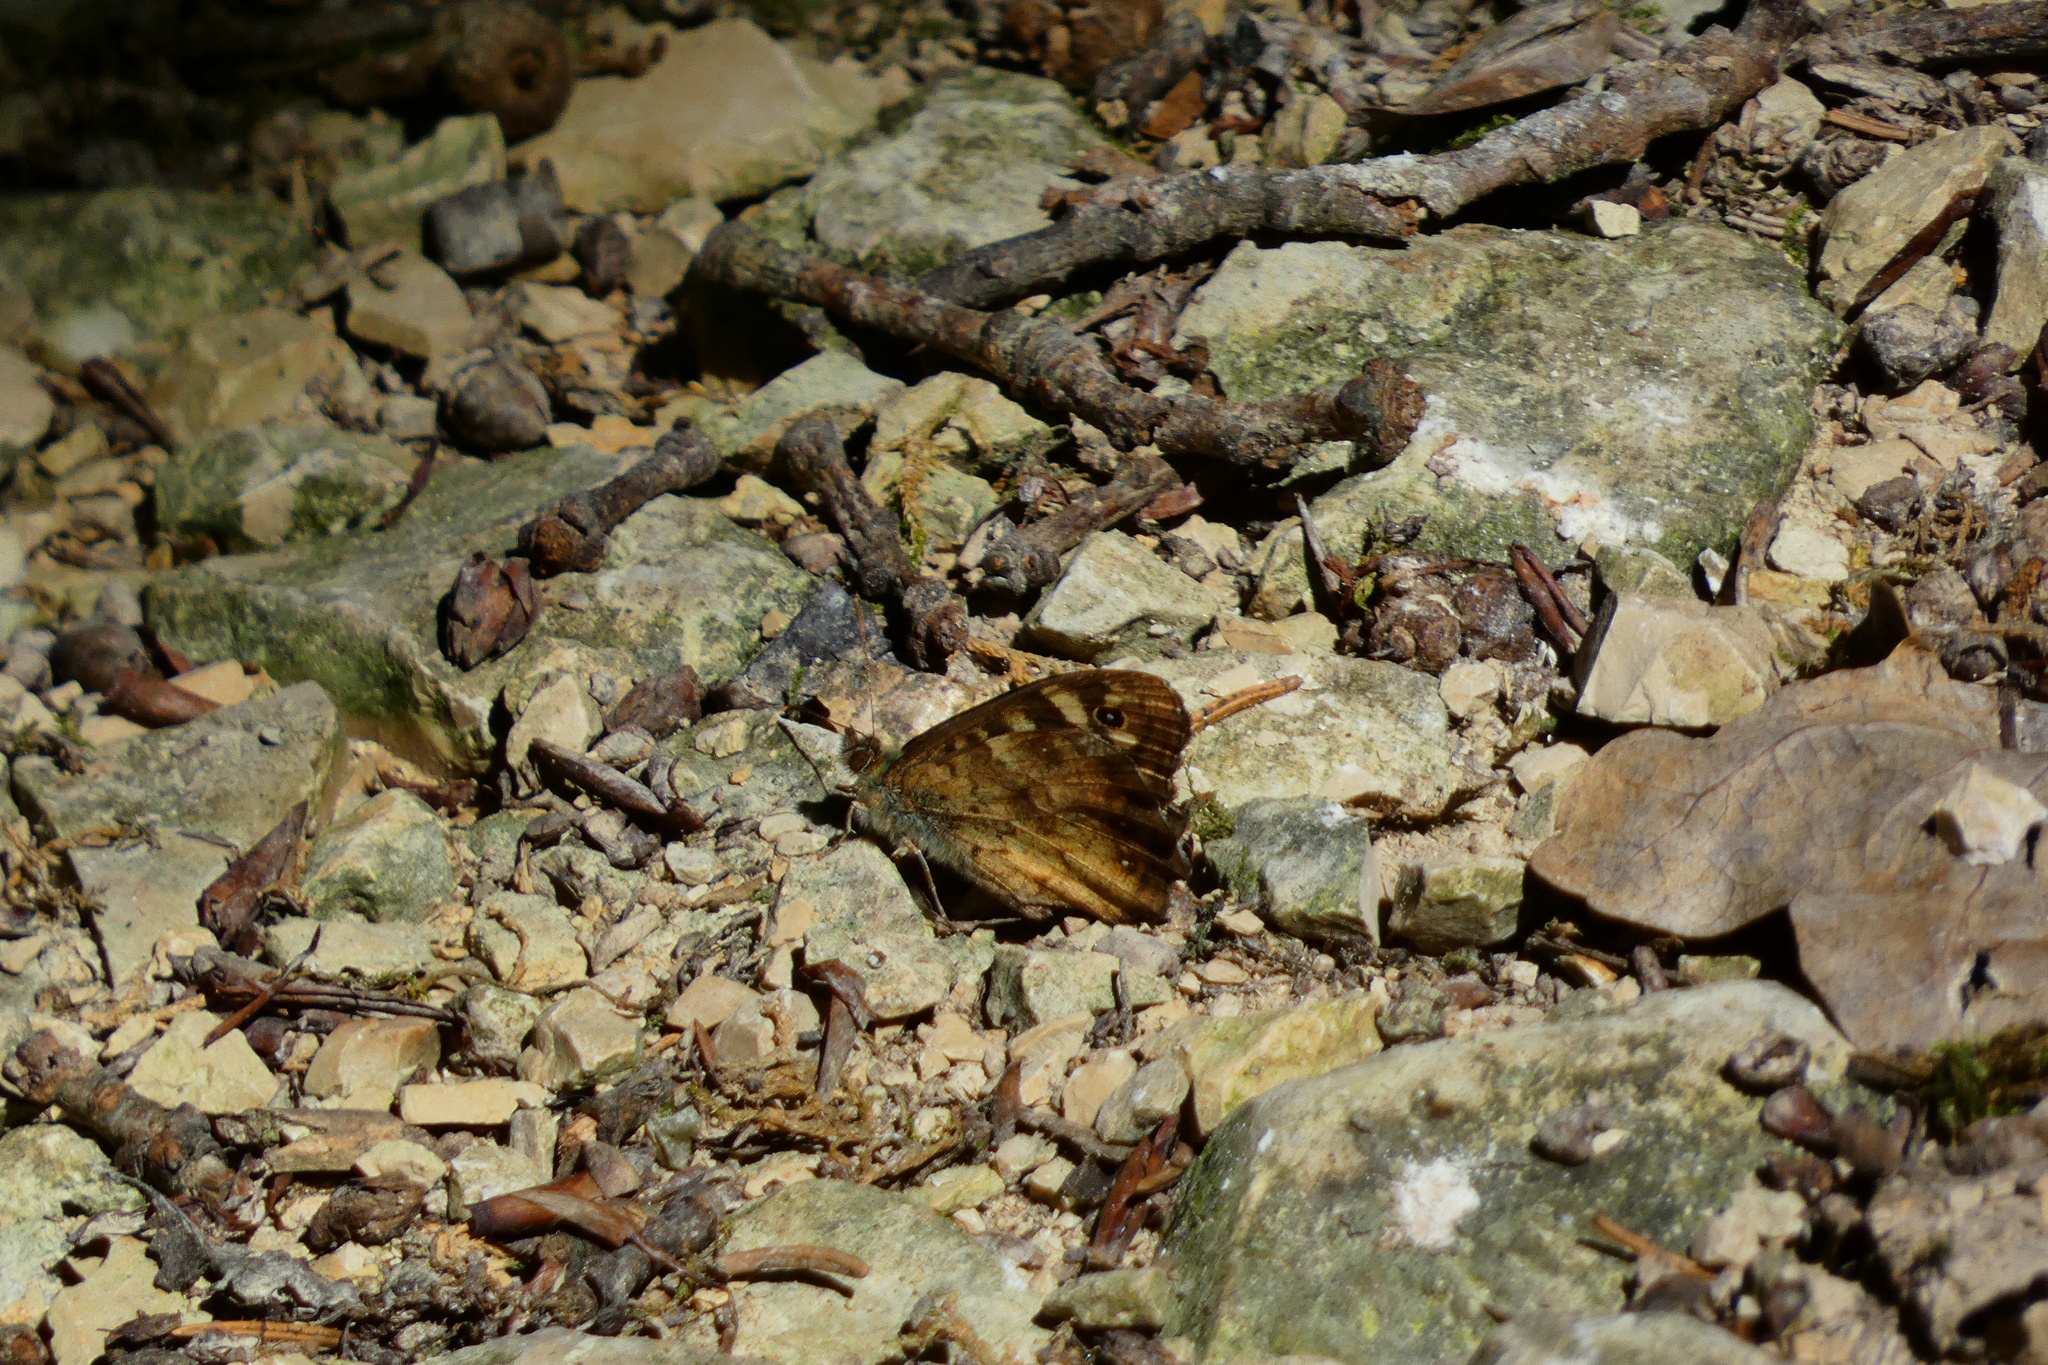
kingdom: Animalia
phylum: Arthropoda
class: Insecta
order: Lepidoptera
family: Nymphalidae
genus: Pararge
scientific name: Pararge aegeria
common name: Speckled wood
